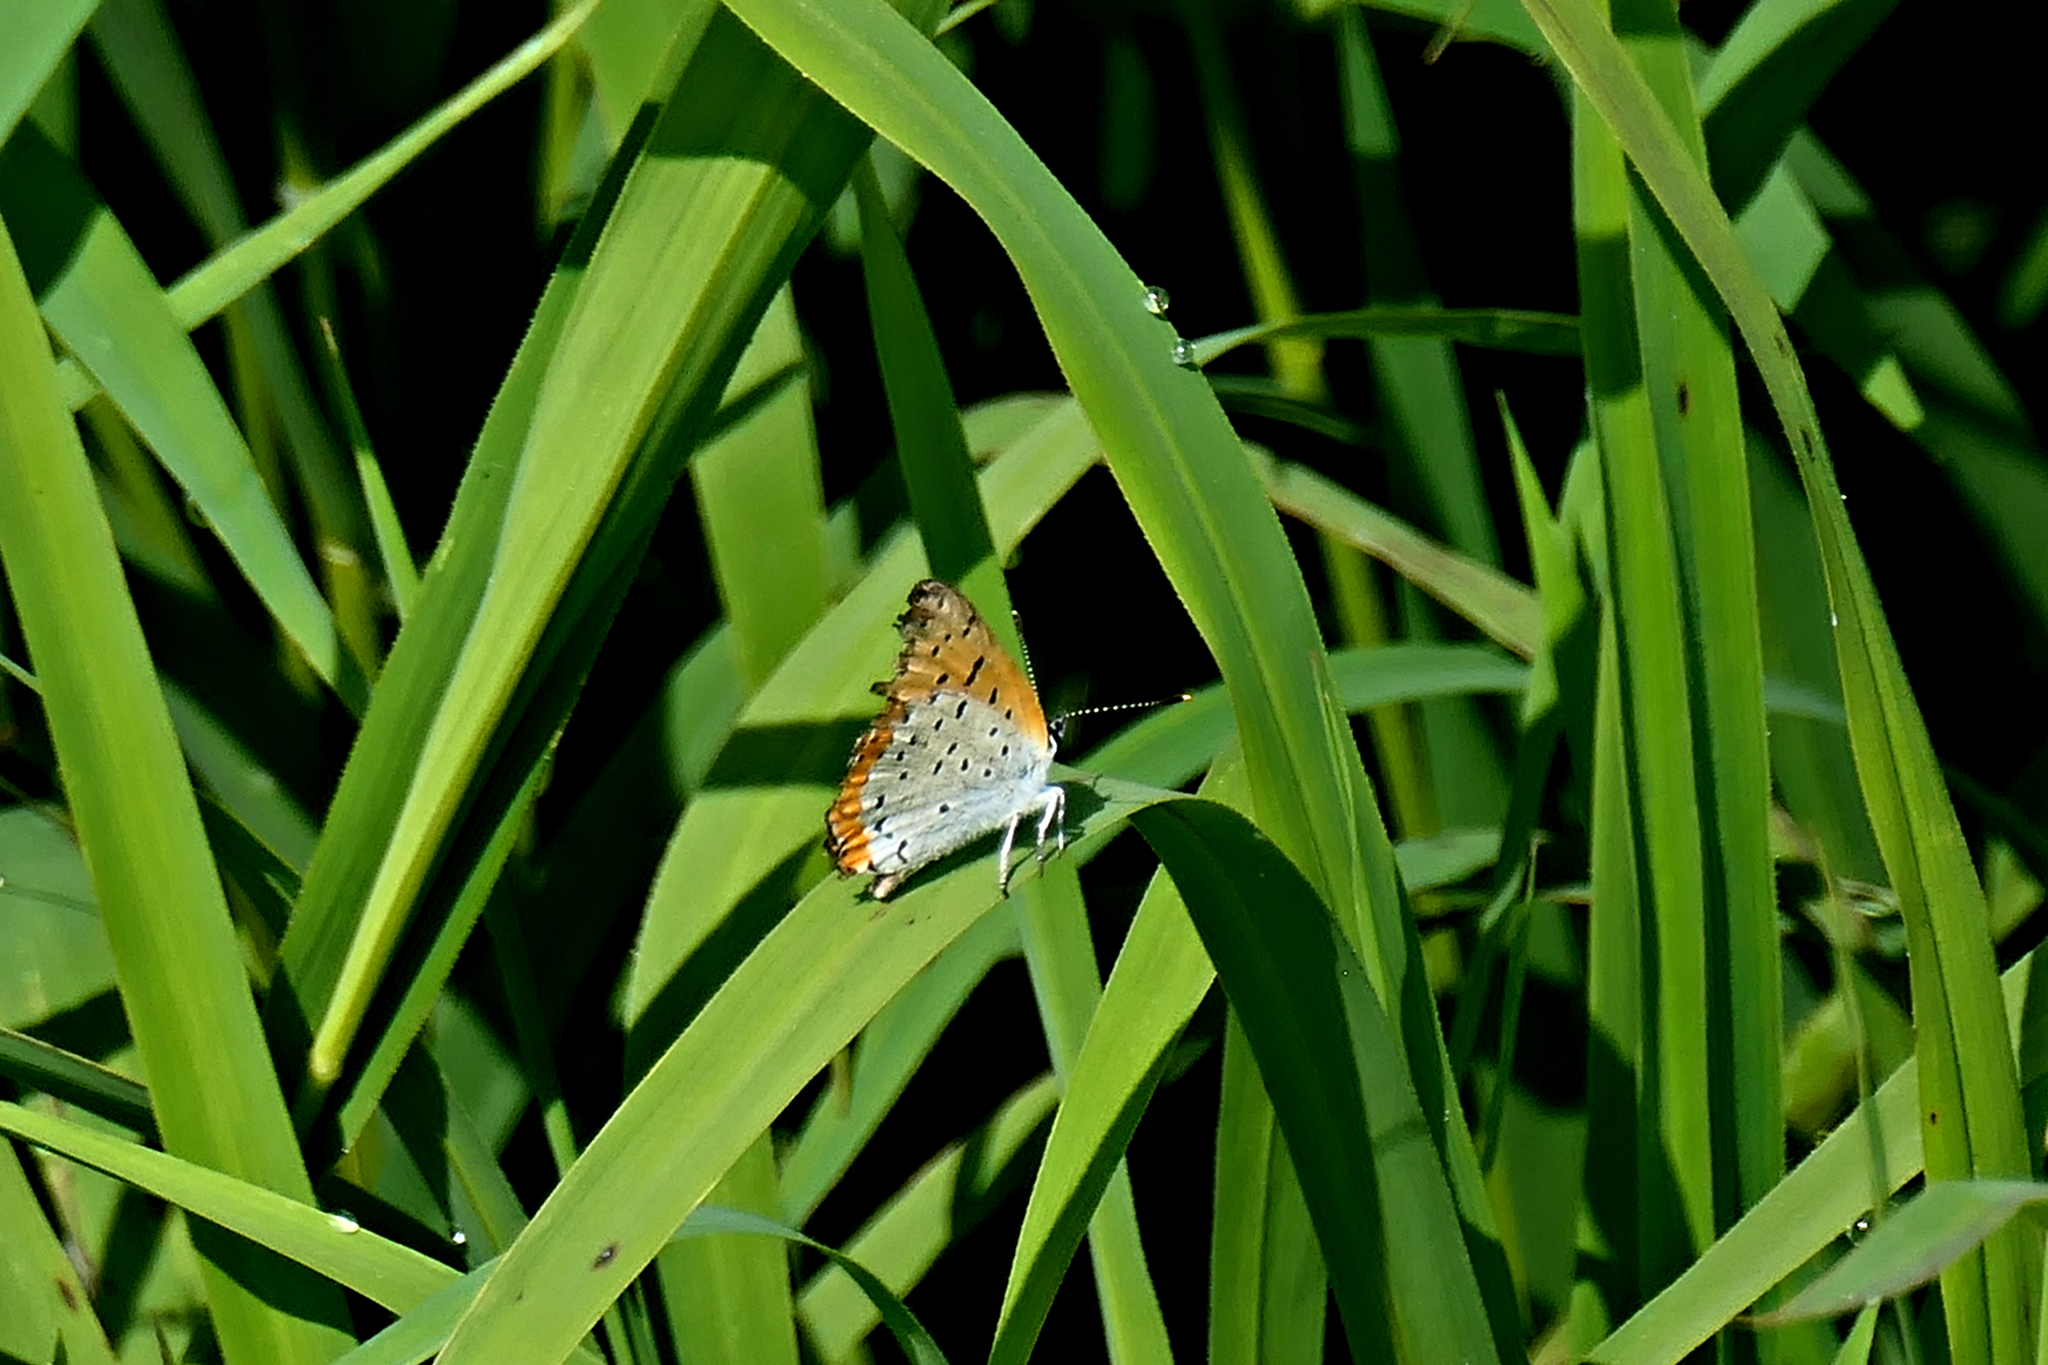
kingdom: Animalia
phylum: Arthropoda
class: Insecta
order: Lepidoptera
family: Lycaenidae
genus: Tharsalea
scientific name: Tharsalea hyllus
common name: Bronze copper
